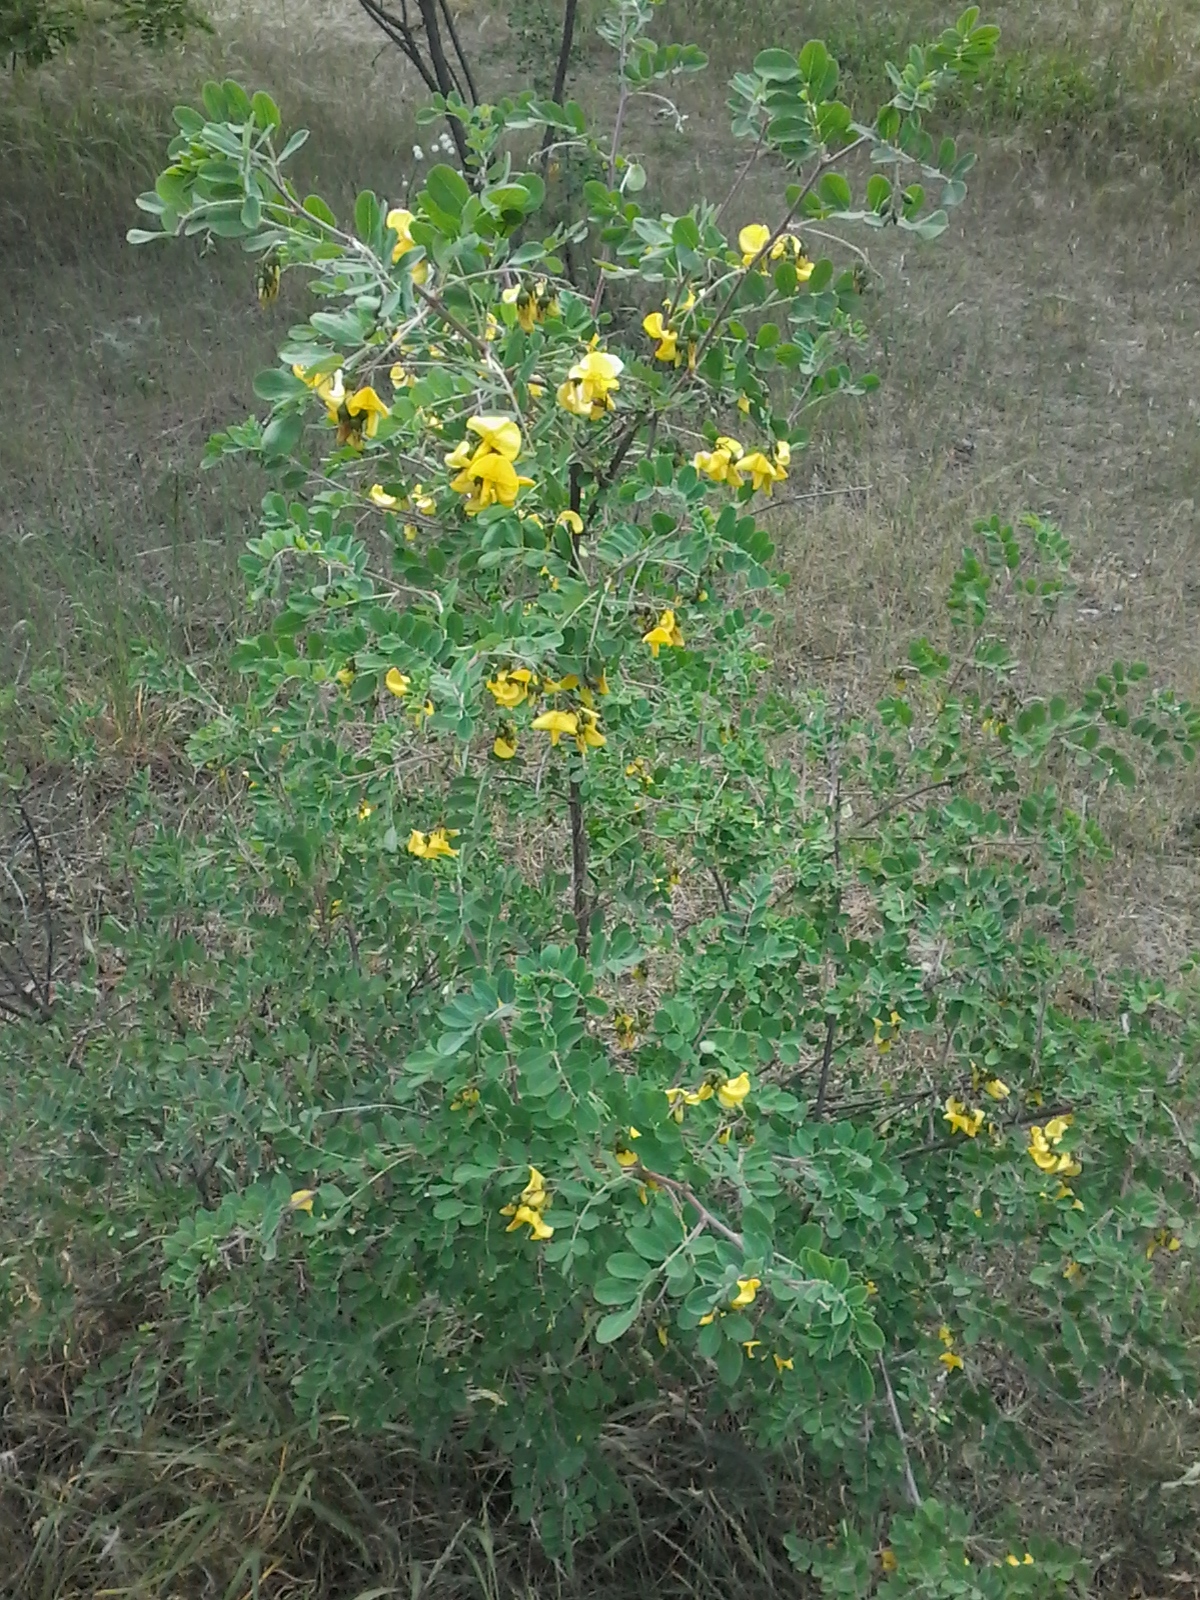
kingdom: Plantae
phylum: Tracheophyta
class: Magnoliopsida
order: Fabales
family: Fabaceae
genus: Colutea
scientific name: Colutea arborescens
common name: Bladder-senna
